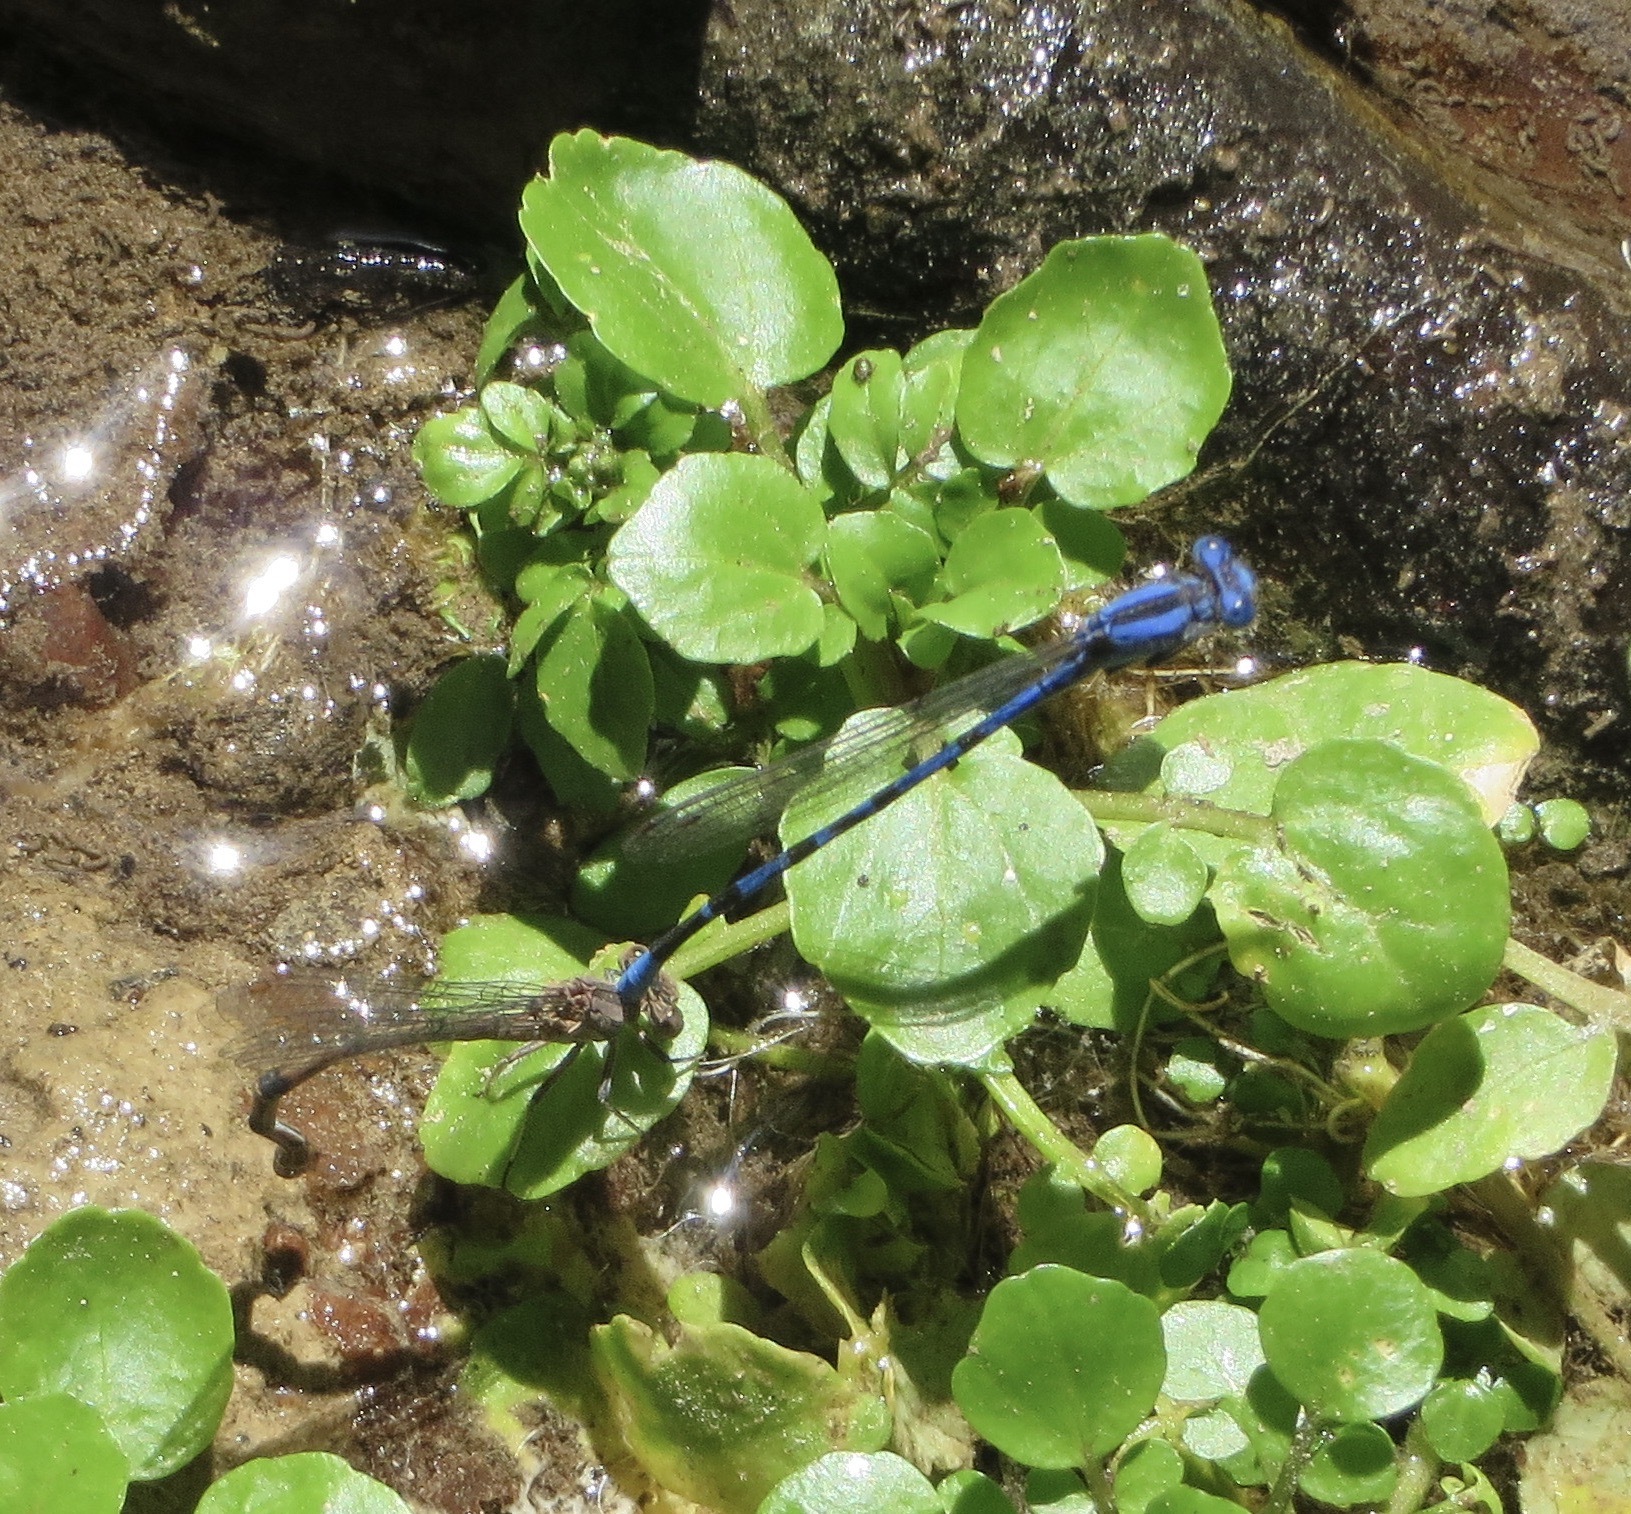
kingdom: Animalia
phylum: Arthropoda
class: Insecta
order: Odonata
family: Coenagrionidae
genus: Argia
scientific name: Argia vivida
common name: Vivid dancer
